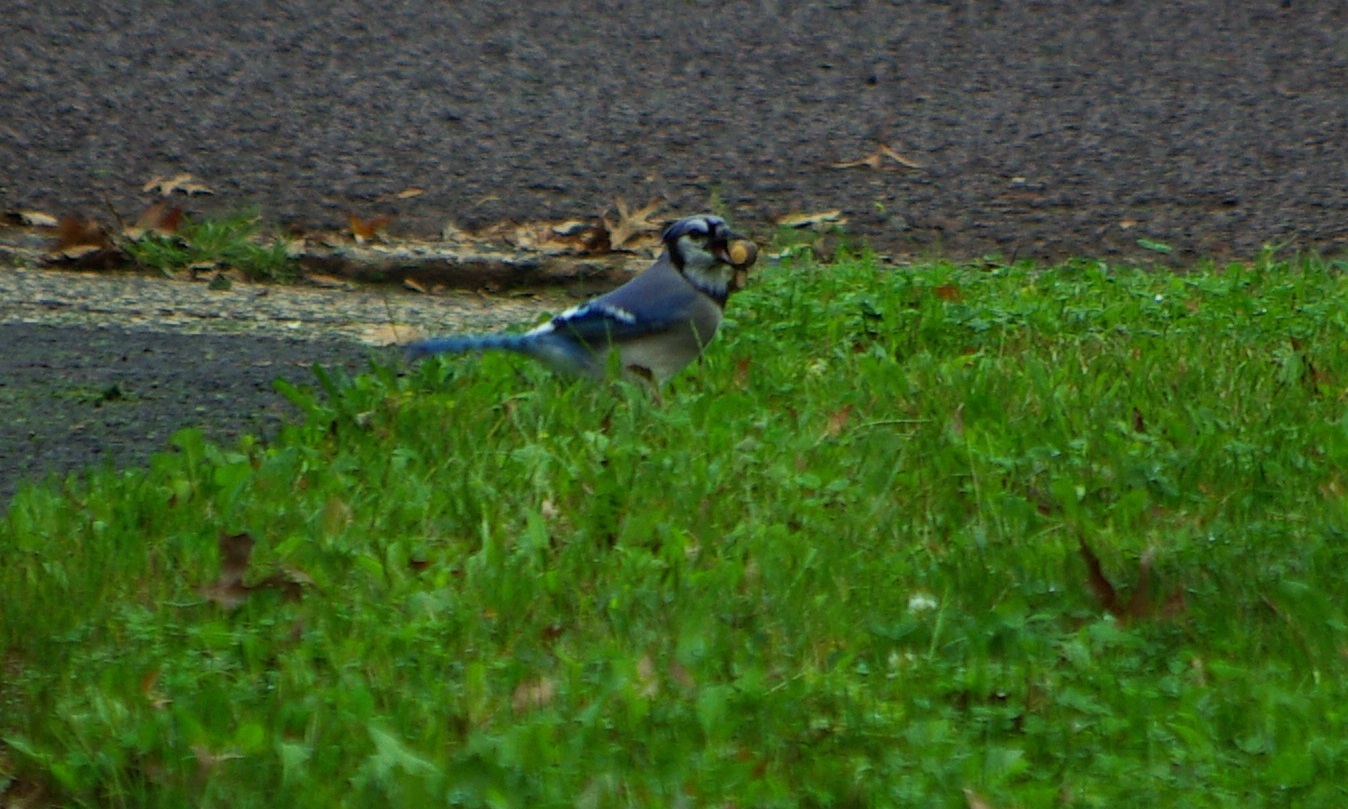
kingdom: Animalia
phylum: Chordata
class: Aves
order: Passeriformes
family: Corvidae
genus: Cyanocitta
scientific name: Cyanocitta cristata
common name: Blue jay
